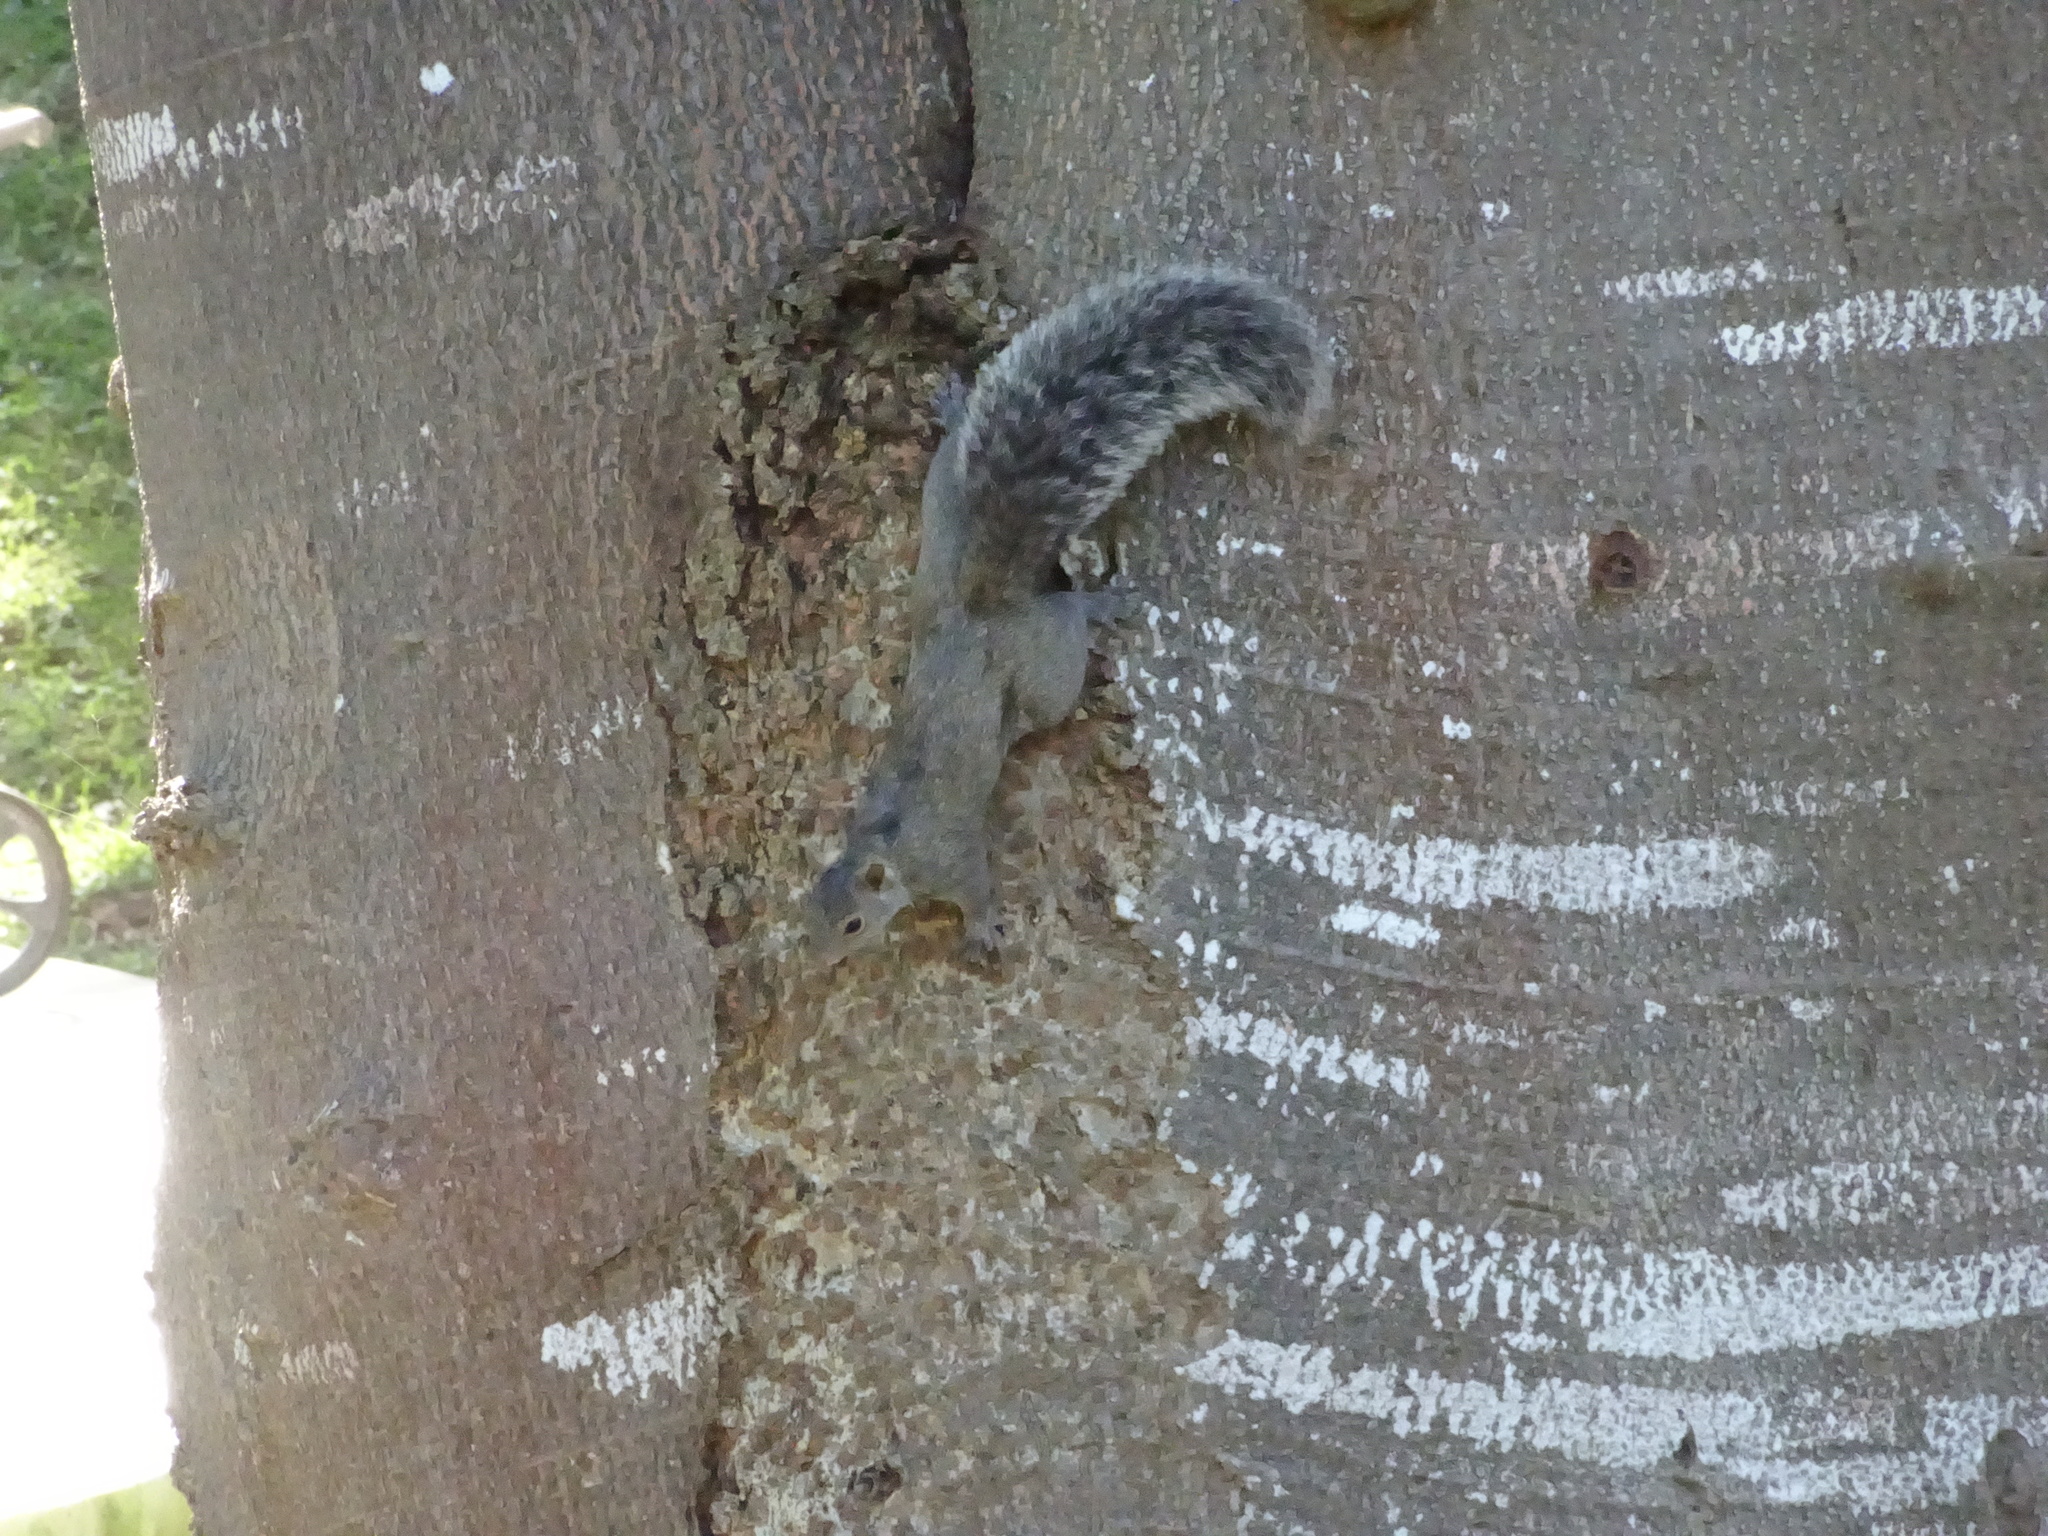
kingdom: Animalia
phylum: Chordata
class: Mammalia
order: Rodentia
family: Sciuridae
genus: Sciurus
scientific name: Sciurus yucatanensis
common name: Yucatan squirrel
